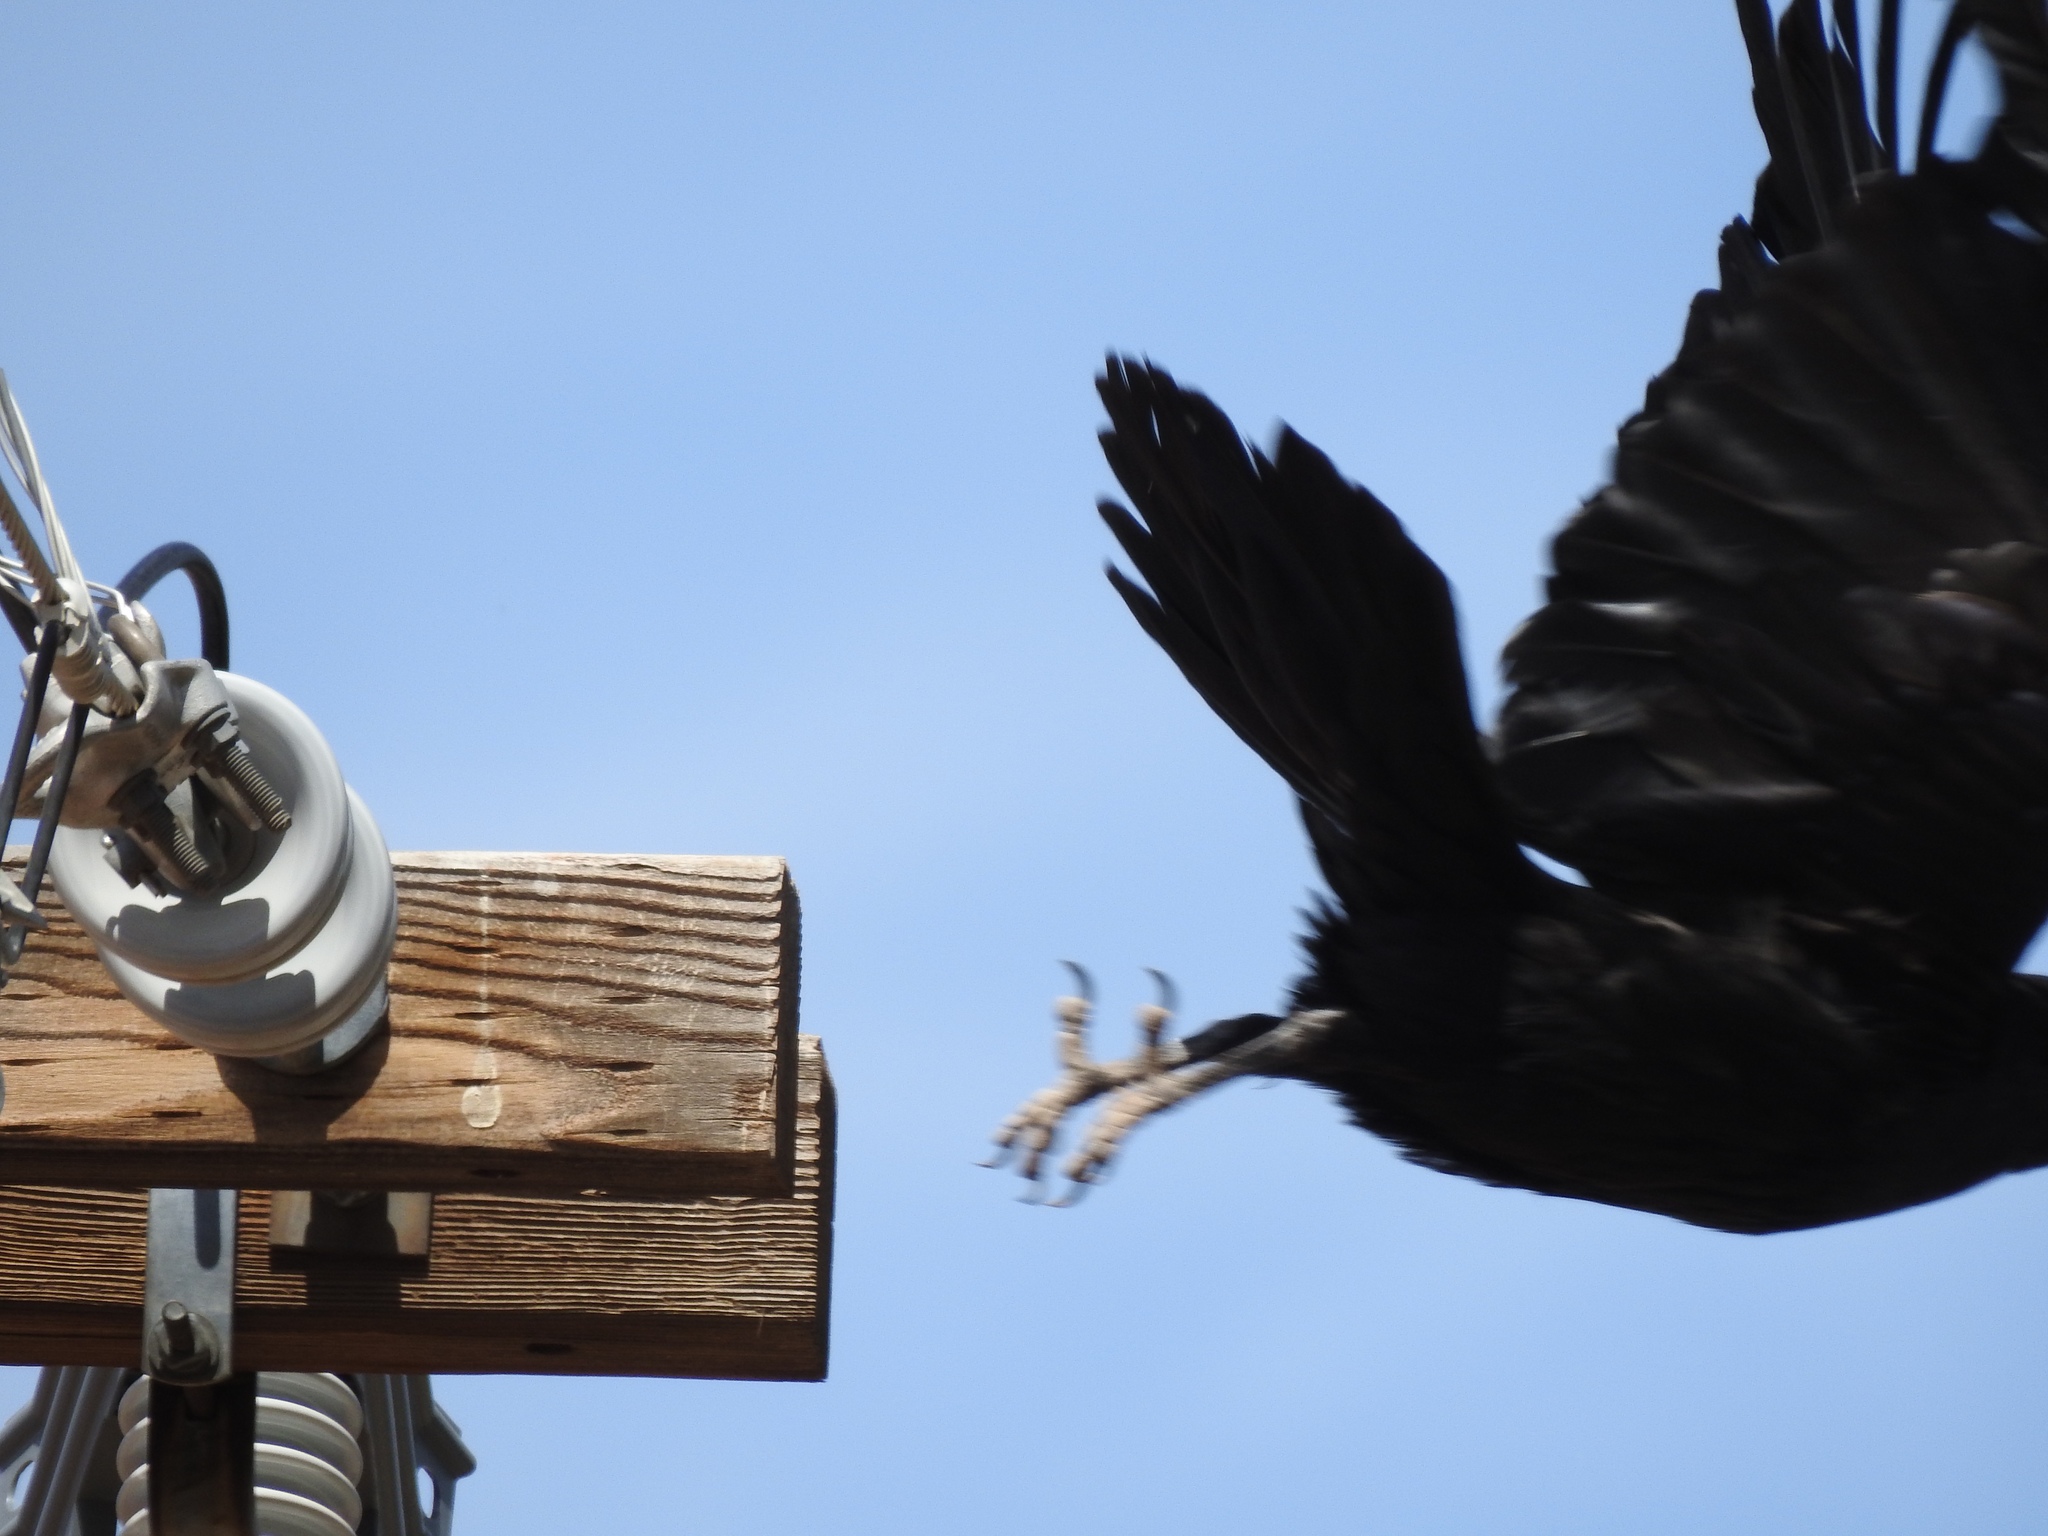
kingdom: Animalia
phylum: Chordata
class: Aves
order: Passeriformes
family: Corvidae
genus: Corvus
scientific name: Corvus corax
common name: Common raven
